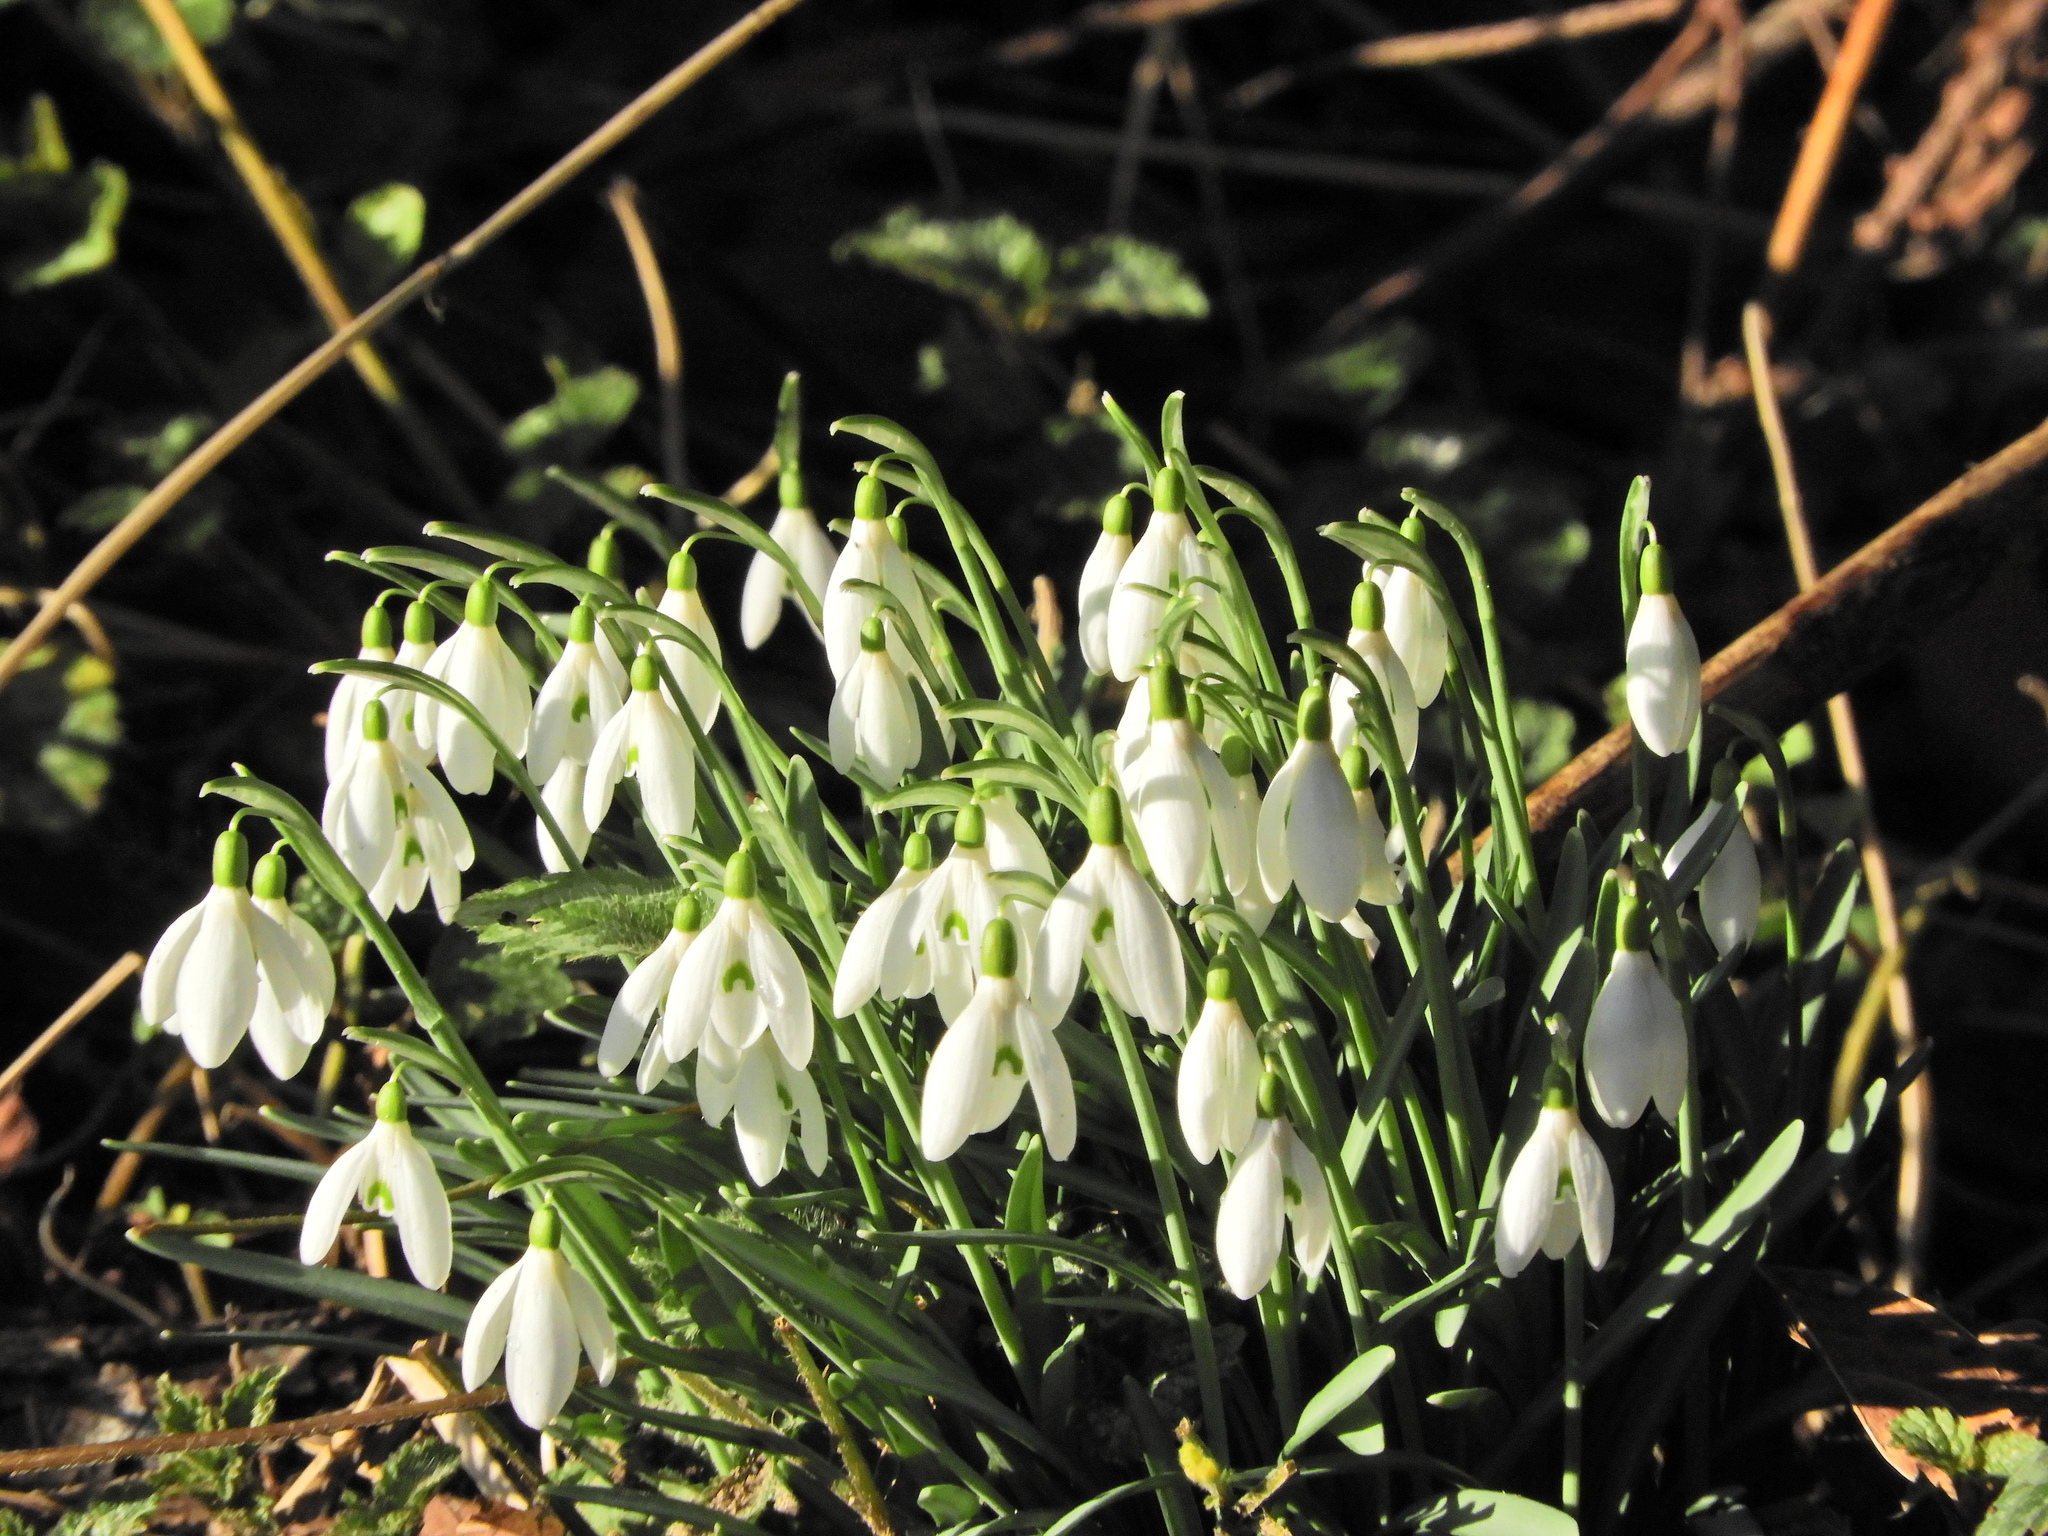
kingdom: Plantae
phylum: Tracheophyta
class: Liliopsida
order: Asparagales
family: Amaryllidaceae
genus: Galanthus
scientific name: Galanthus nivalis
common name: Snowdrop
